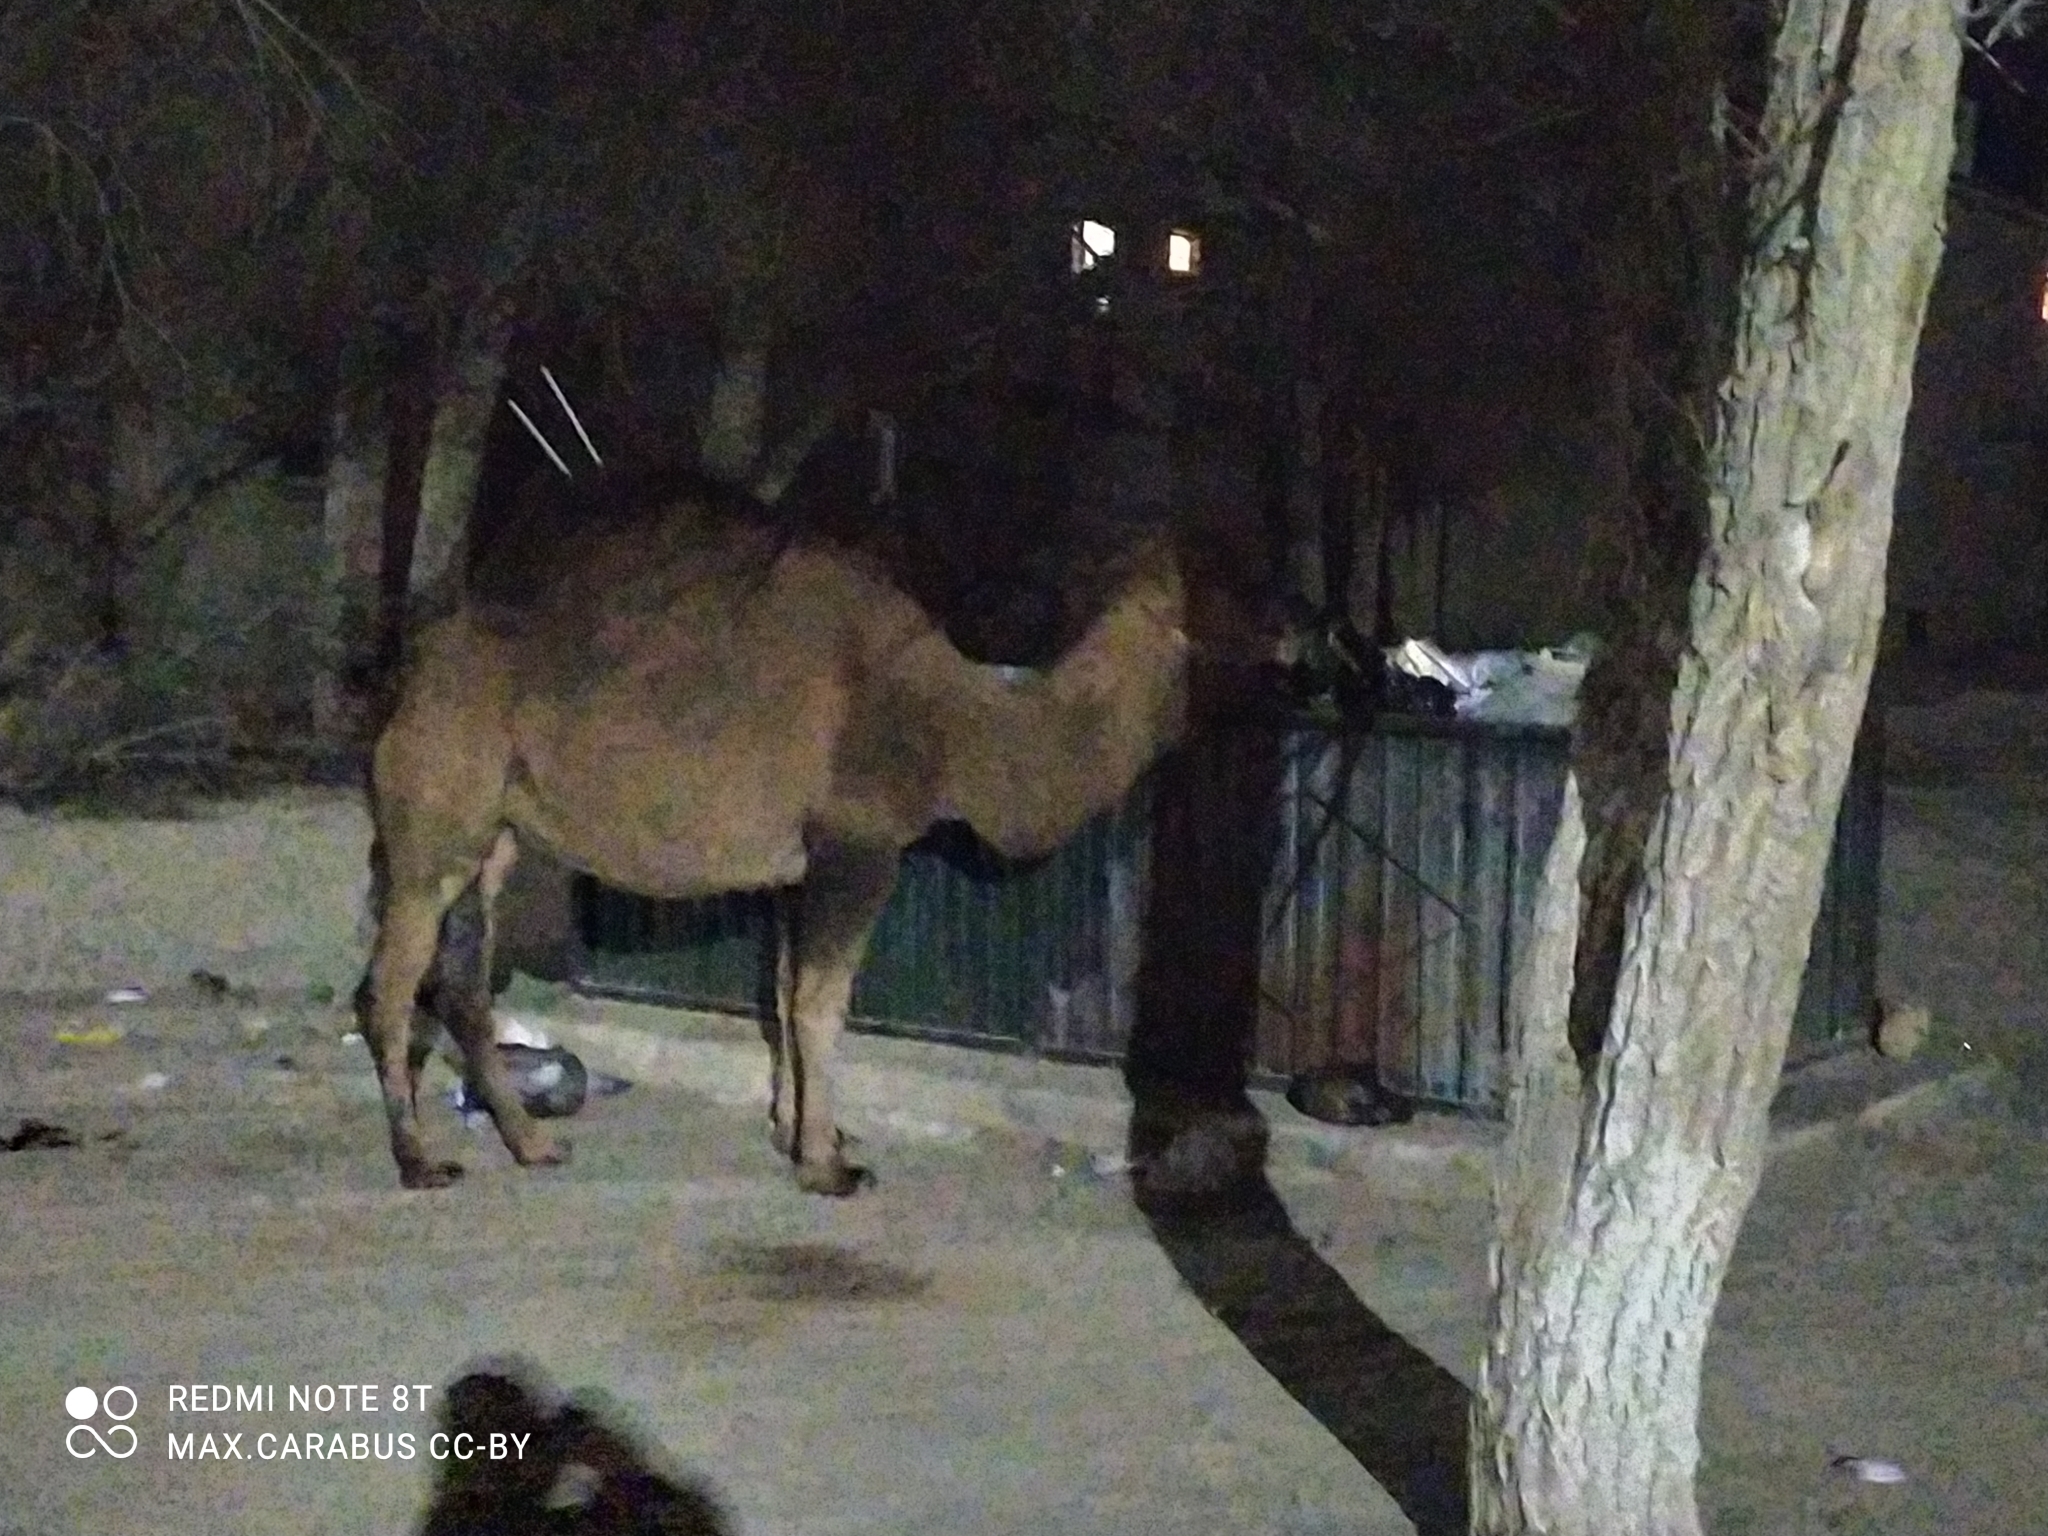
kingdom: Animalia
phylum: Chordata
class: Mammalia
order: Artiodactyla
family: Camelidae
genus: Camelus
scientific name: Camelus dromedarius
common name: One-humped camel
